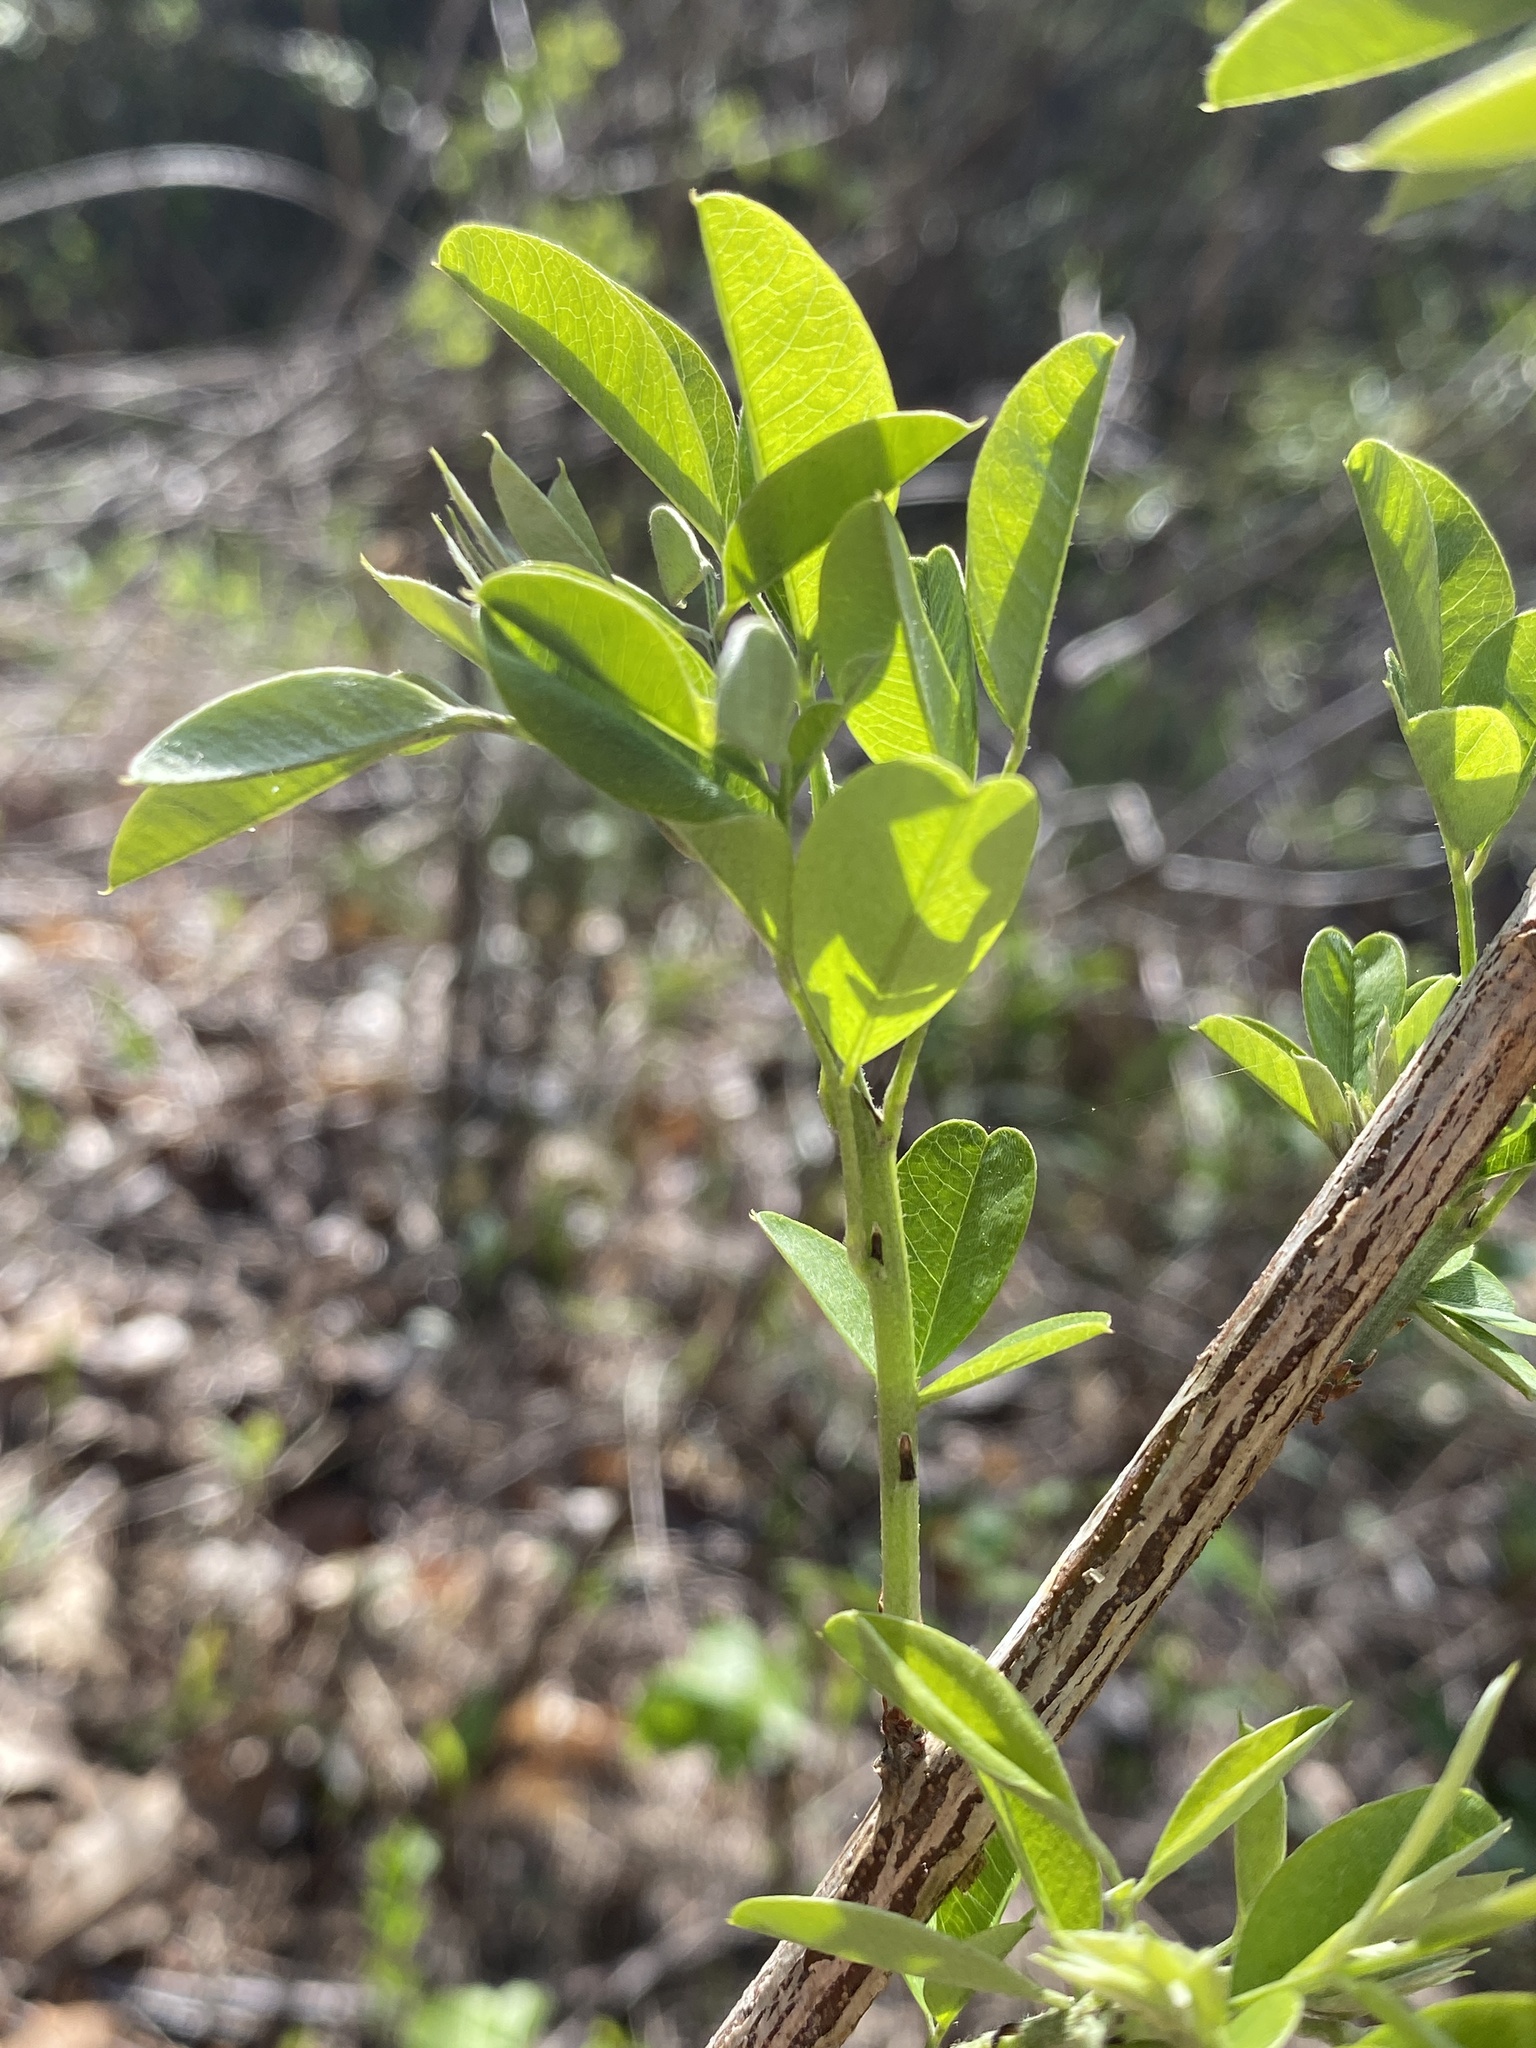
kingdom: Plantae
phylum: Tracheophyta
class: Magnoliopsida
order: Fabales
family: Fabaceae
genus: Lespedeza
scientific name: Lespedeza bicolor
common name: Shrub lespedeza
